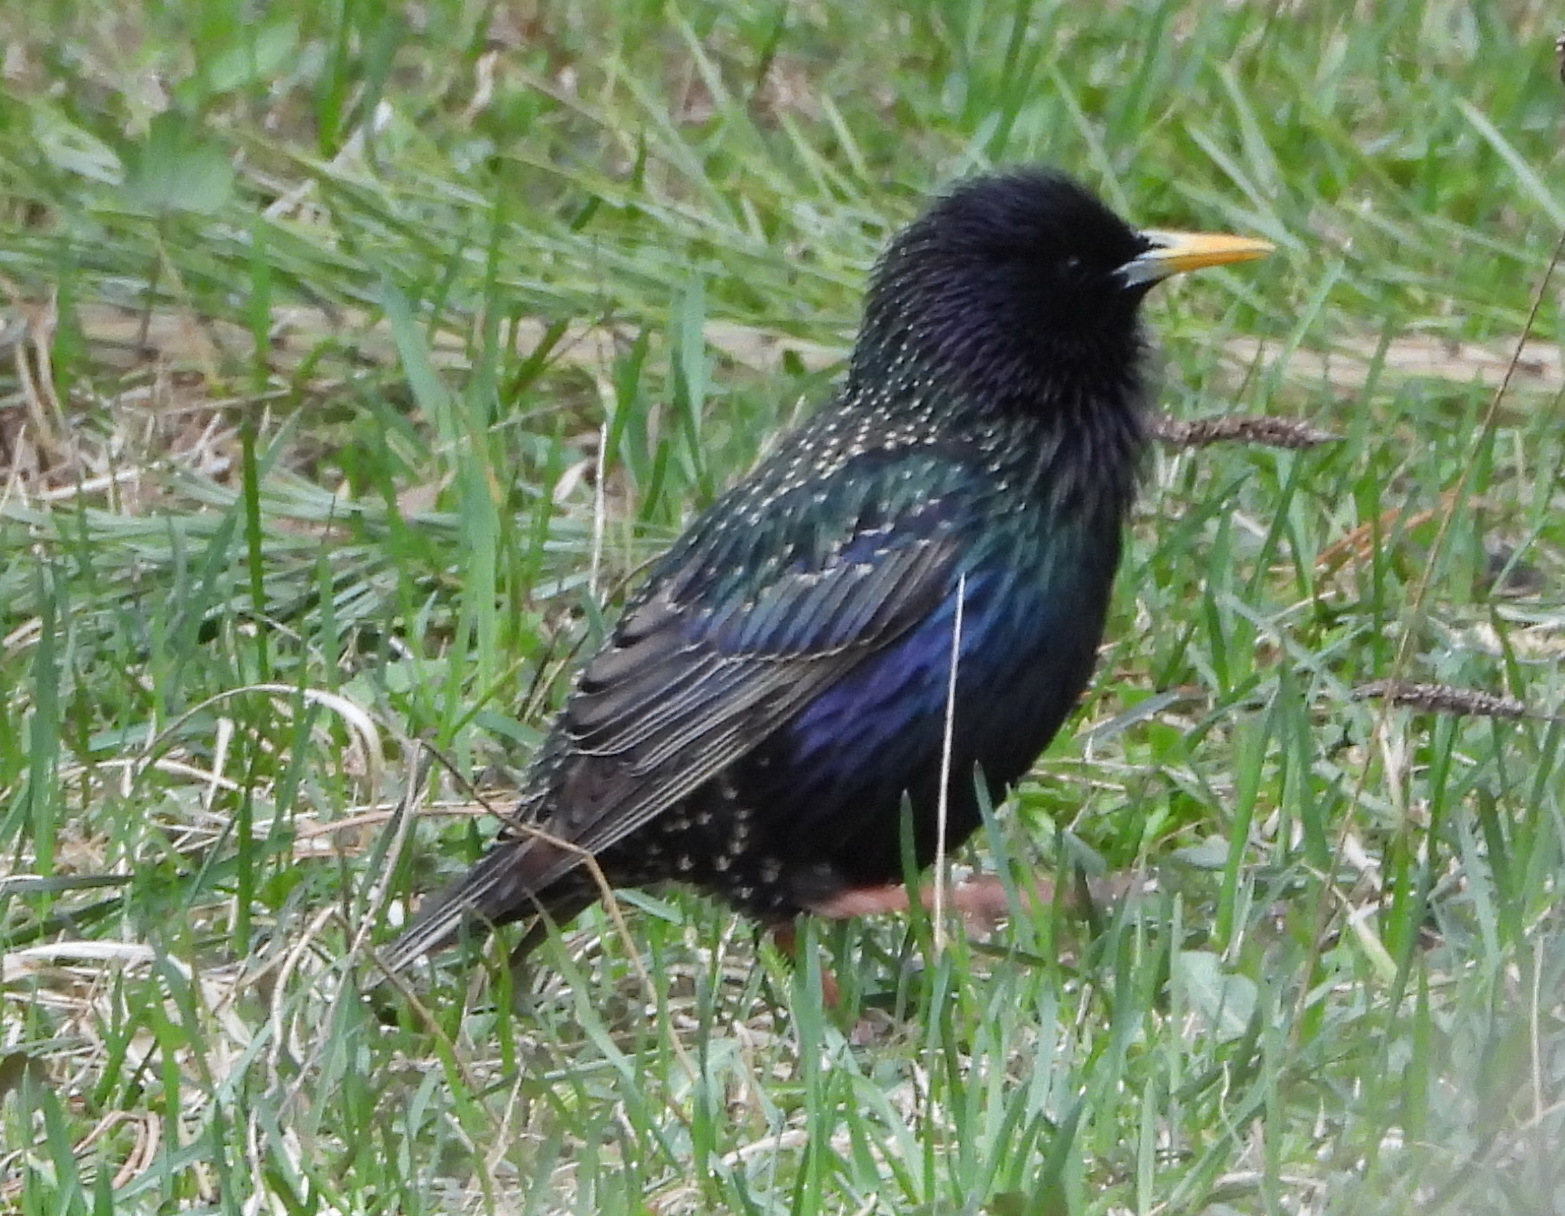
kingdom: Animalia
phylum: Chordata
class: Aves
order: Passeriformes
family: Sturnidae
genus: Sturnus
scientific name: Sturnus vulgaris
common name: Common starling
